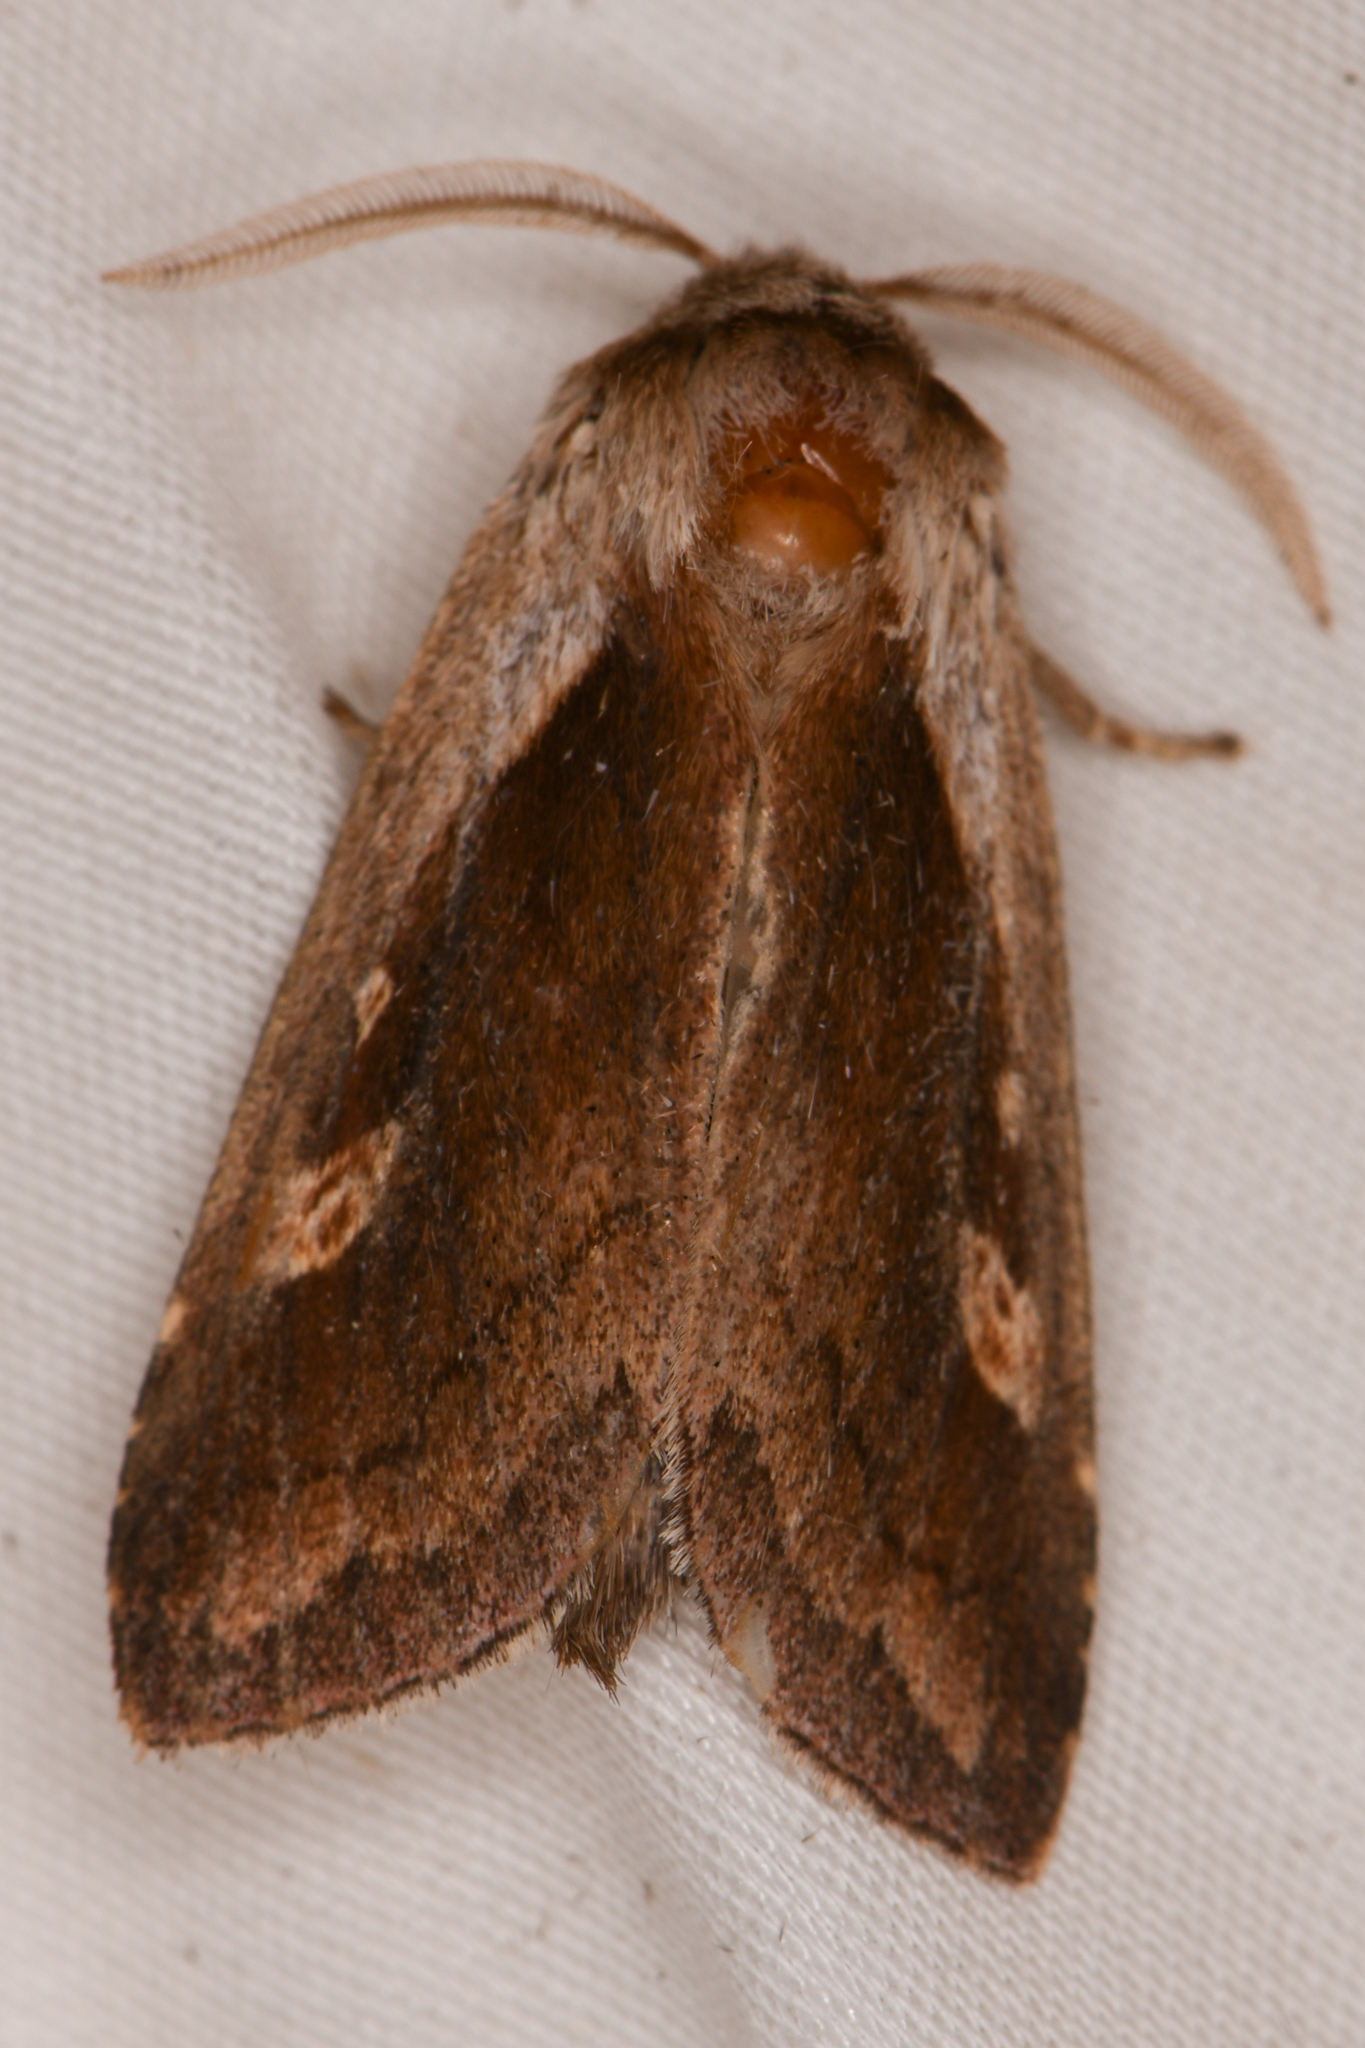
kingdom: Animalia
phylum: Arthropoda
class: Insecta
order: Lepidoptera
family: Noctuidae
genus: Bellura
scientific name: Bellura obliqua
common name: Cattail borer moth
